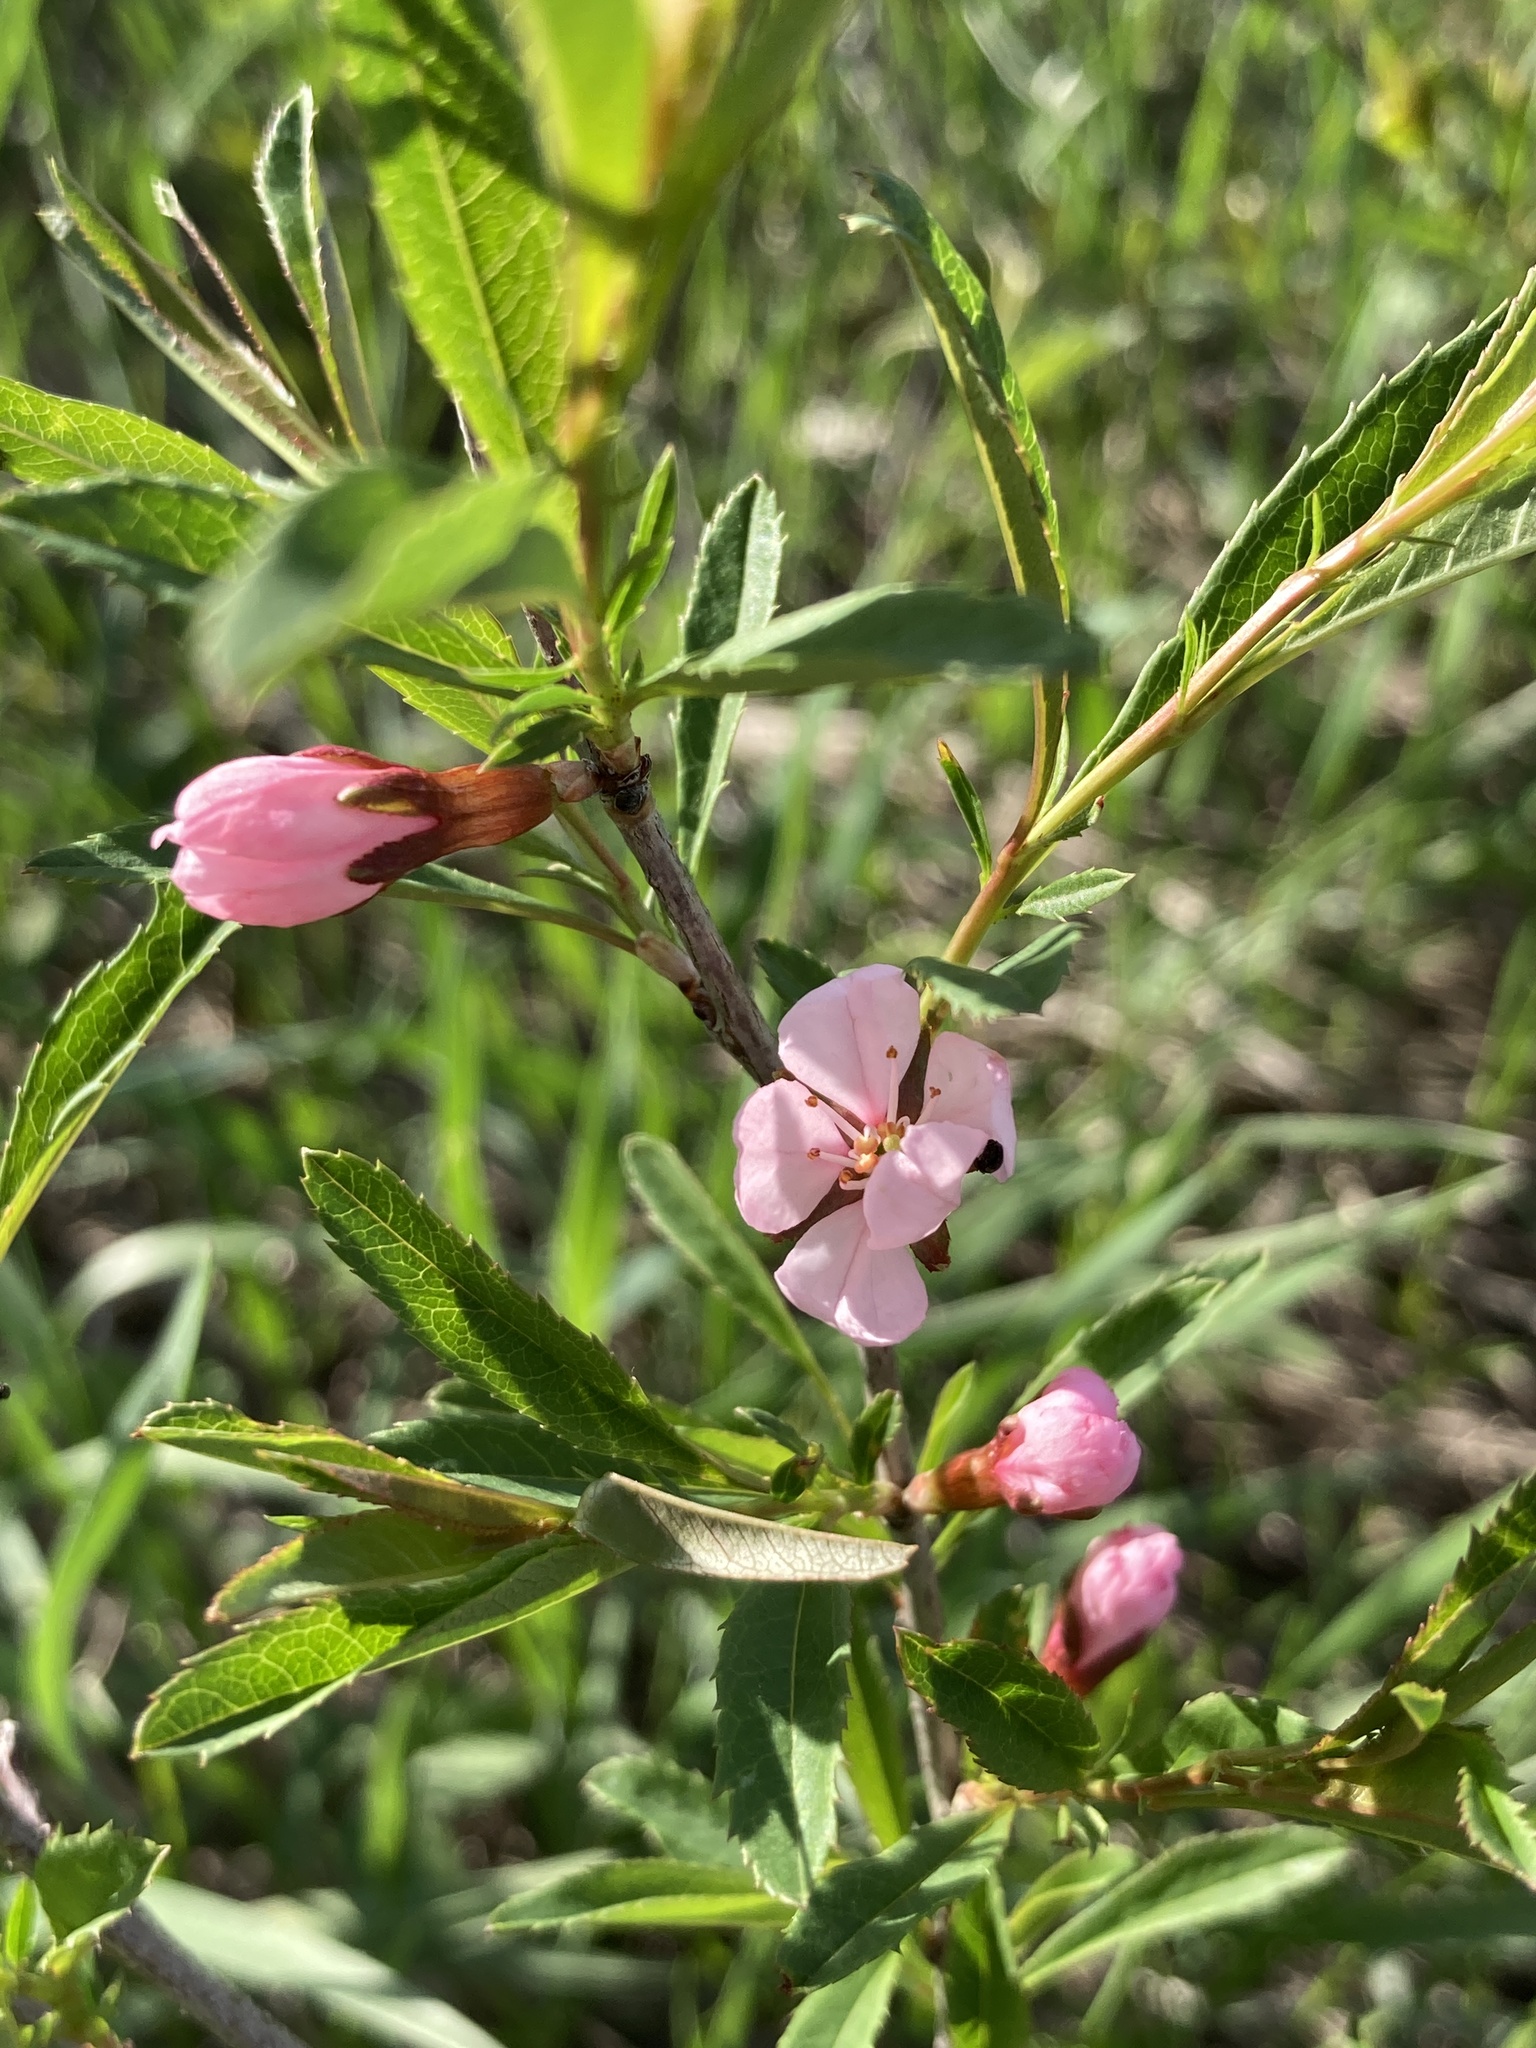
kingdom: Plantae
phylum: Tracheophyta
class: Magnoliopsida
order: Rosales
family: Rosaceae
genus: Prunus
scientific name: Prunus tenella
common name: Dwarf russian almond
